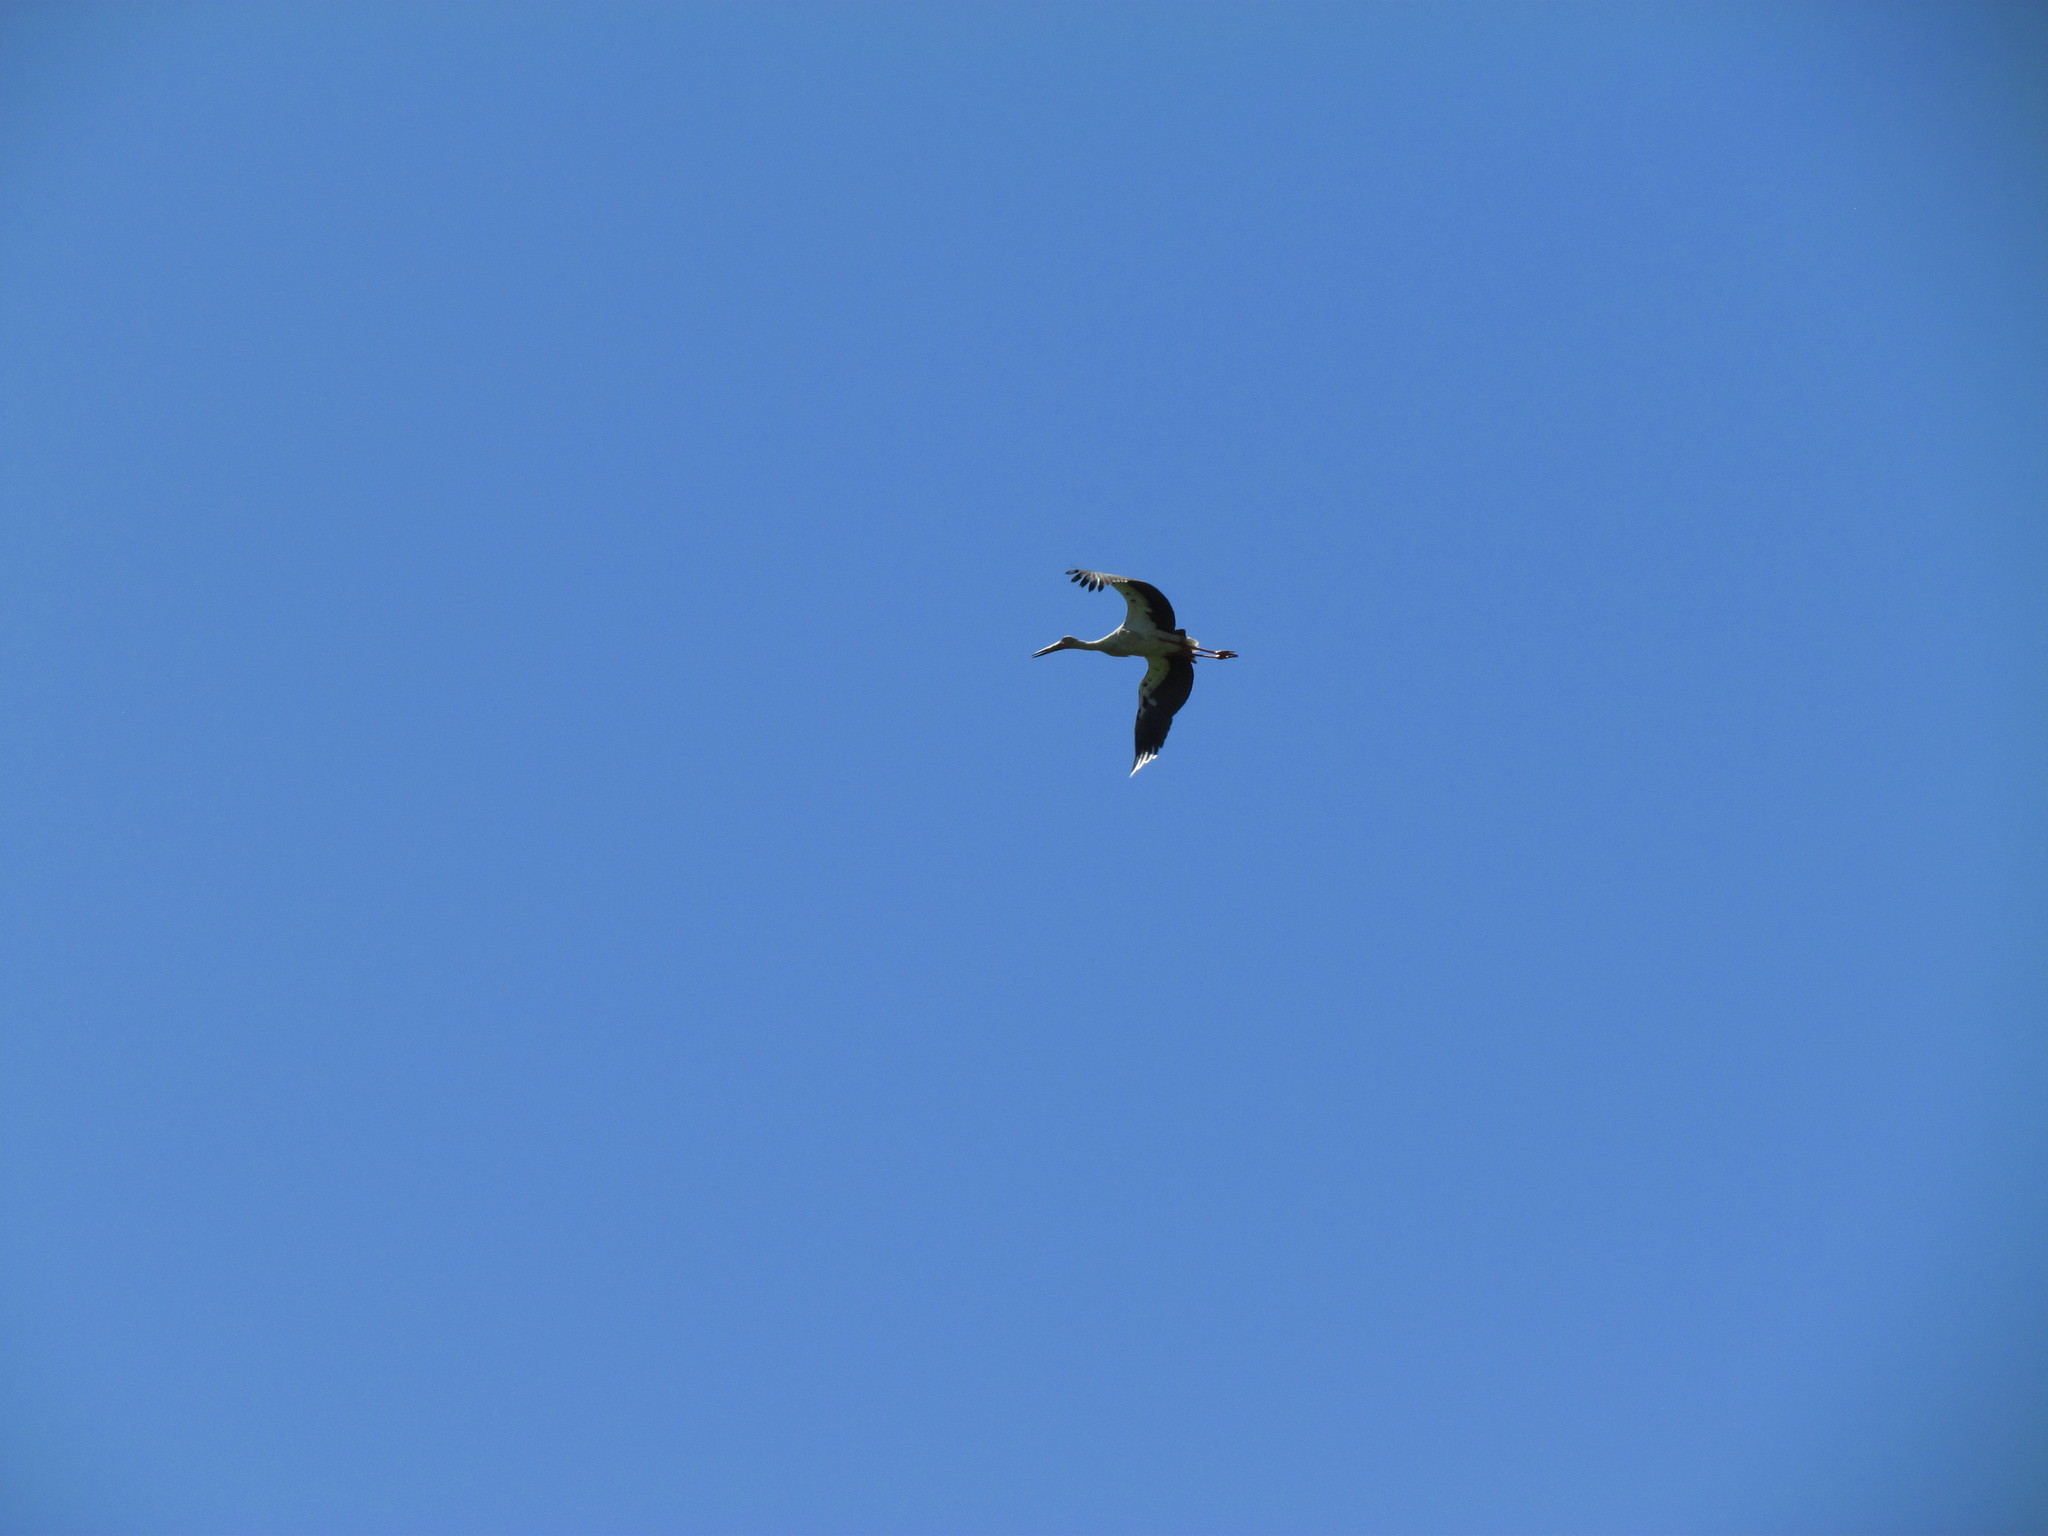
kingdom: Animalia
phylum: Chordata
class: Aves
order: Ciconiiformes
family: Ciconiidae
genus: Ciconia
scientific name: Ciconia maguari
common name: Maguari stork
